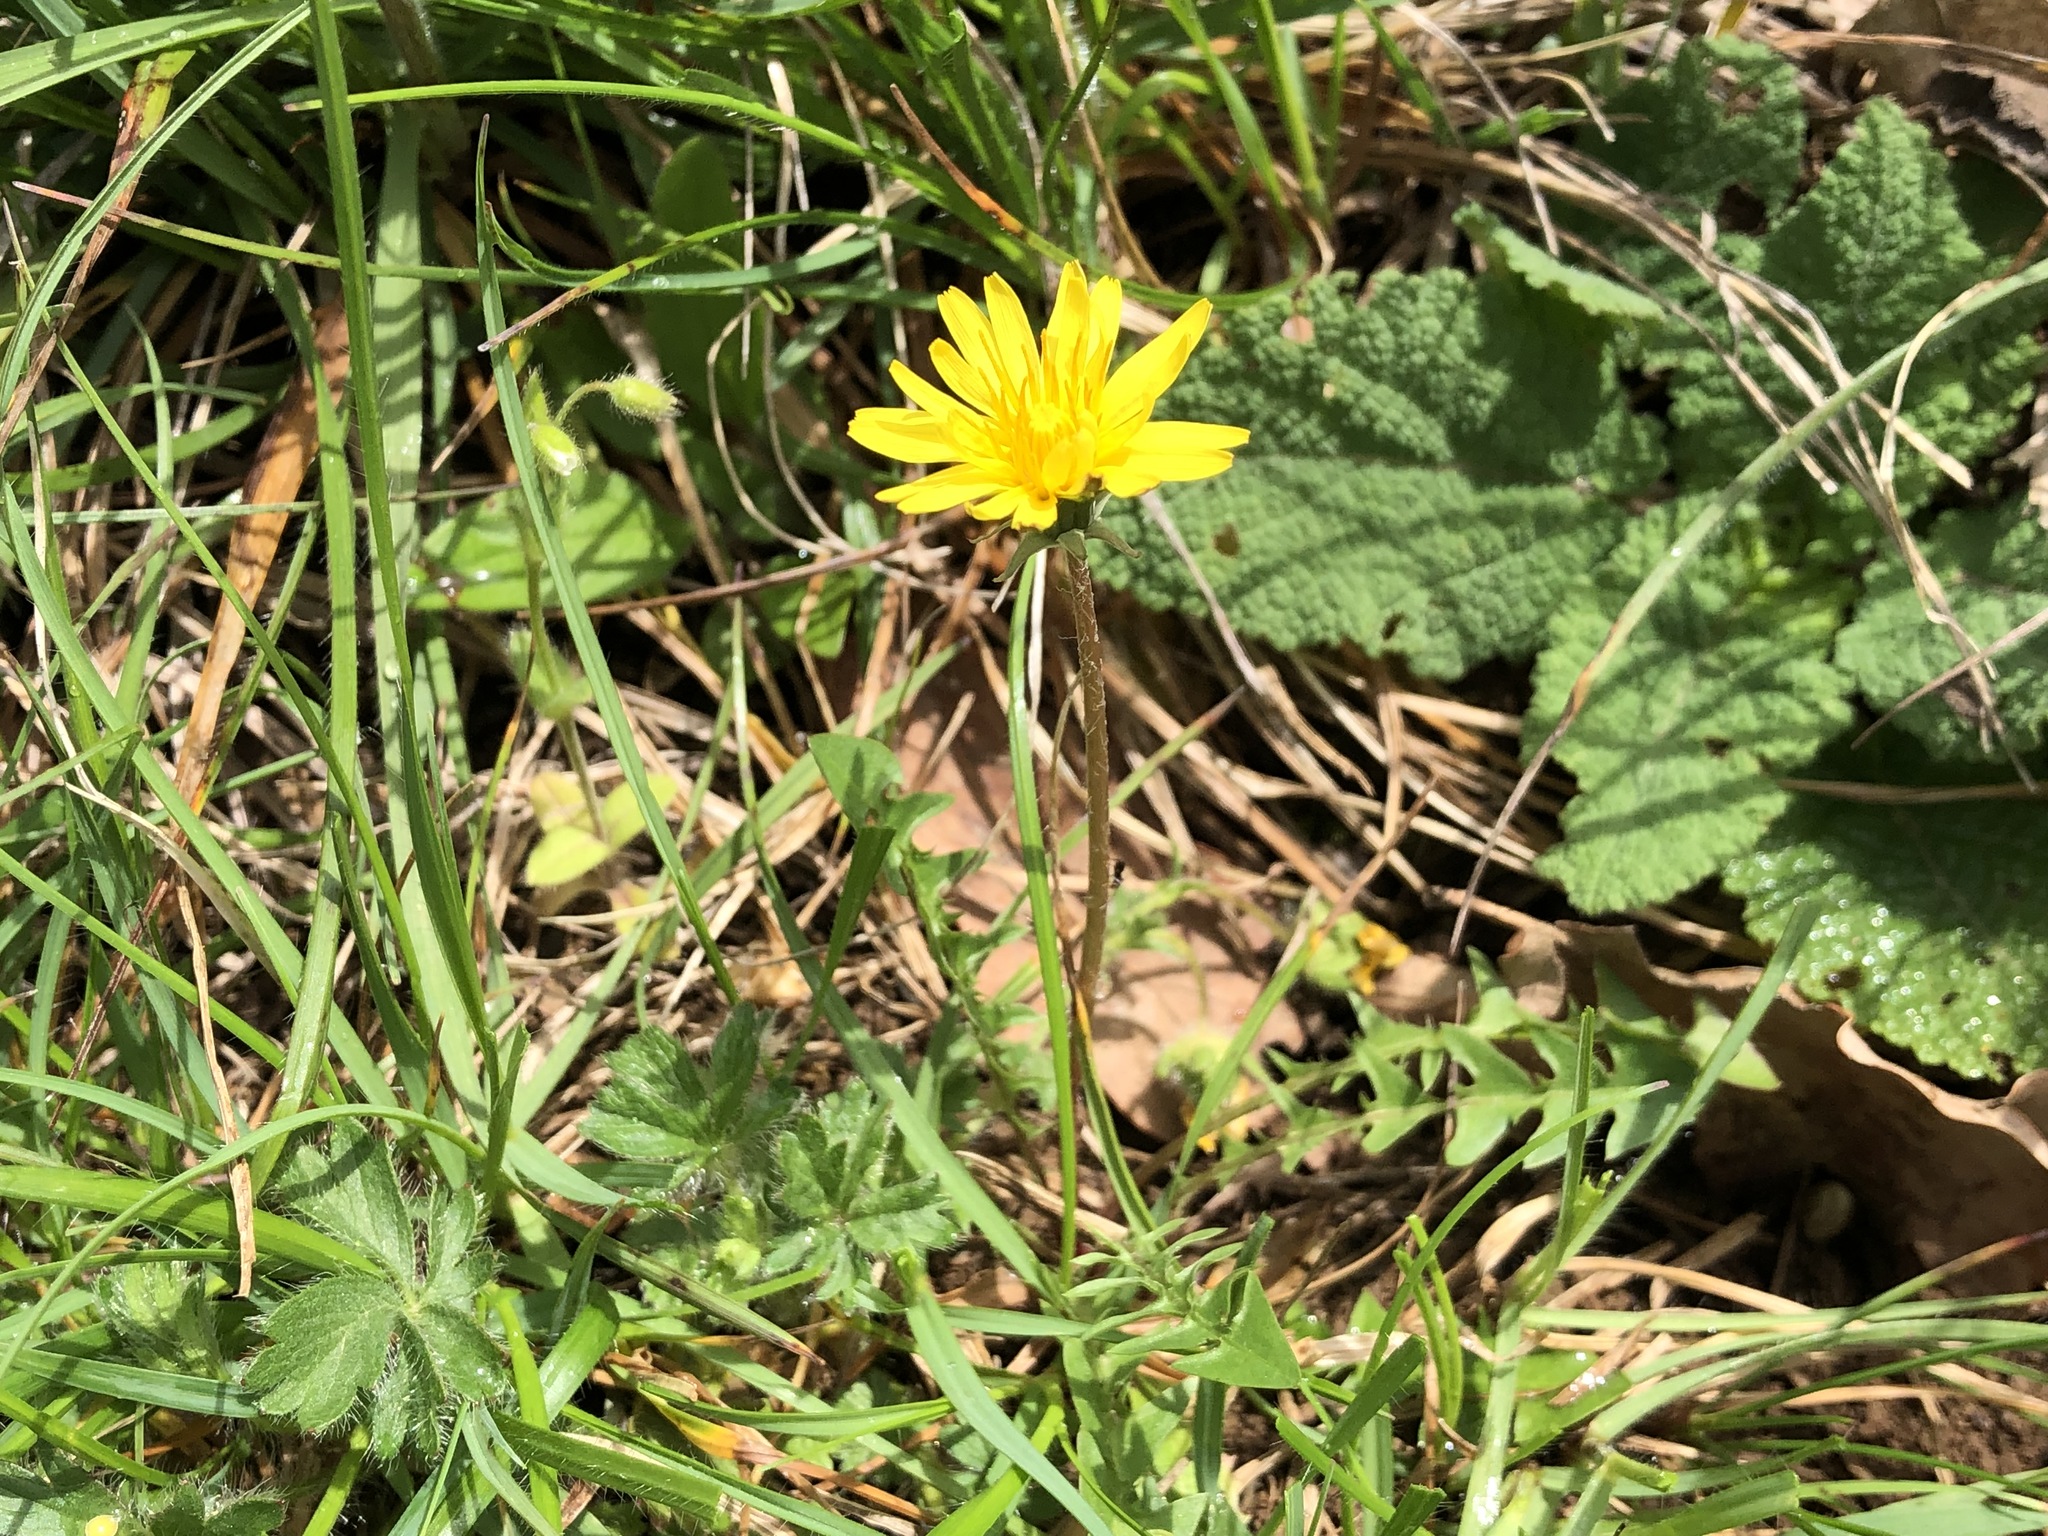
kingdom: Plantae
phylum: Tracheophyta
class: Magnoliopsida
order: Asterales
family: Asteraceae
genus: Taraxacum
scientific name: Taraxacum erythrospermum
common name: Rock dandelion
